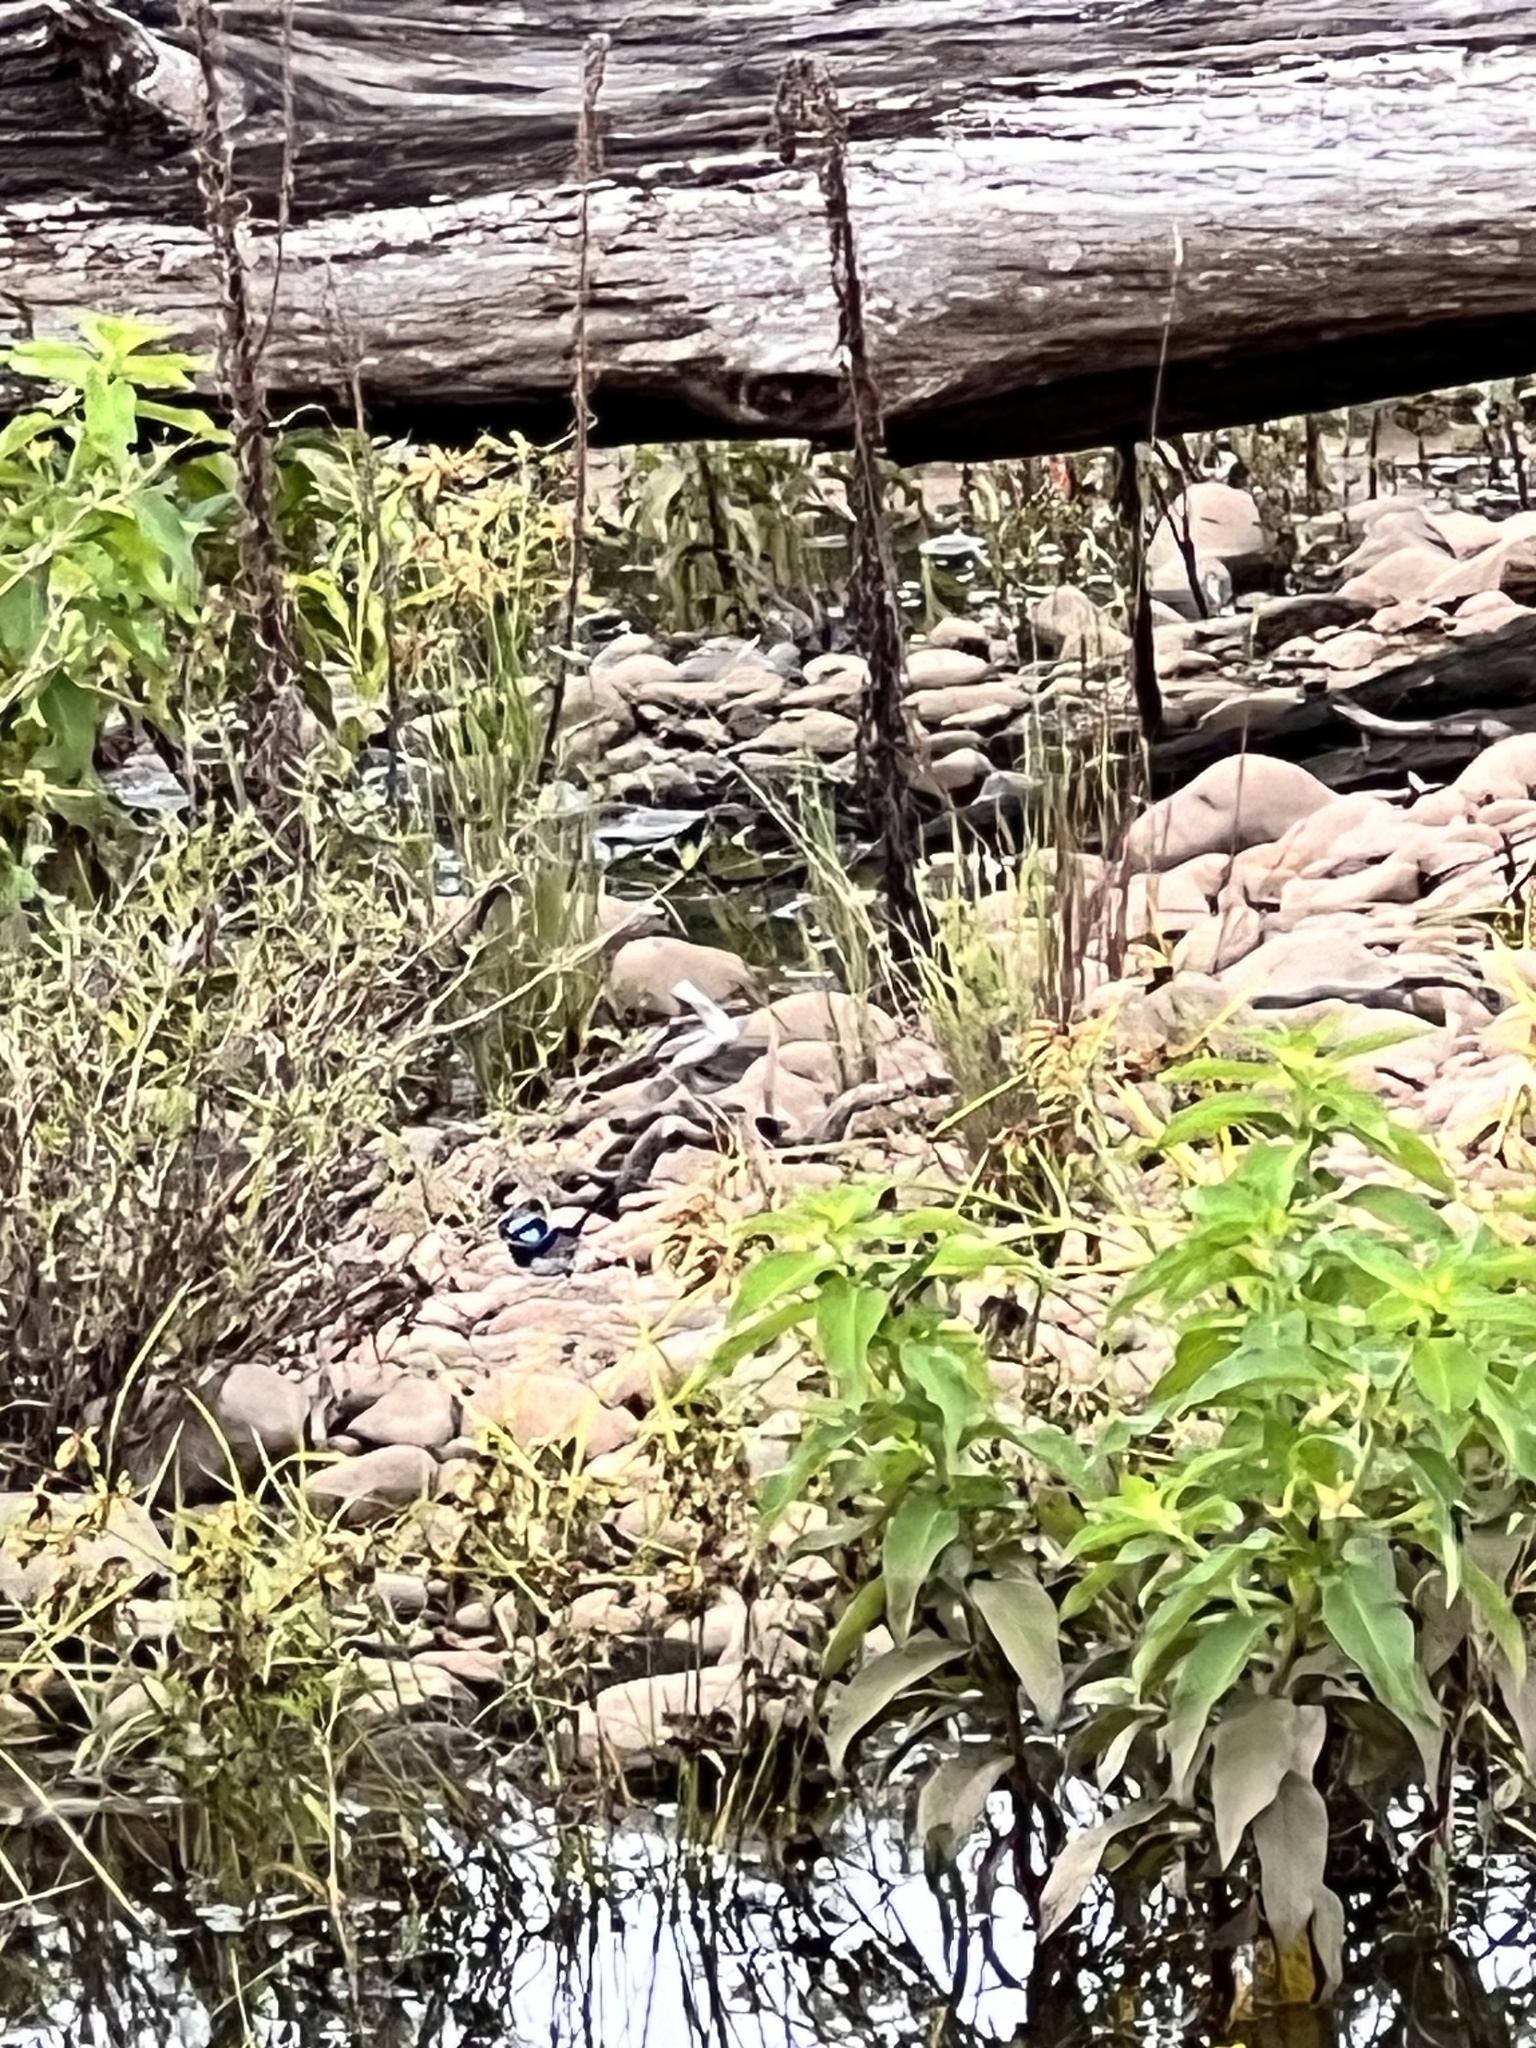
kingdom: Animalia
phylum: Chordata
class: Aves
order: Passeriformes
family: Maluridae
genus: Malurus
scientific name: Malurus cyaneus
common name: Superb fairywren
